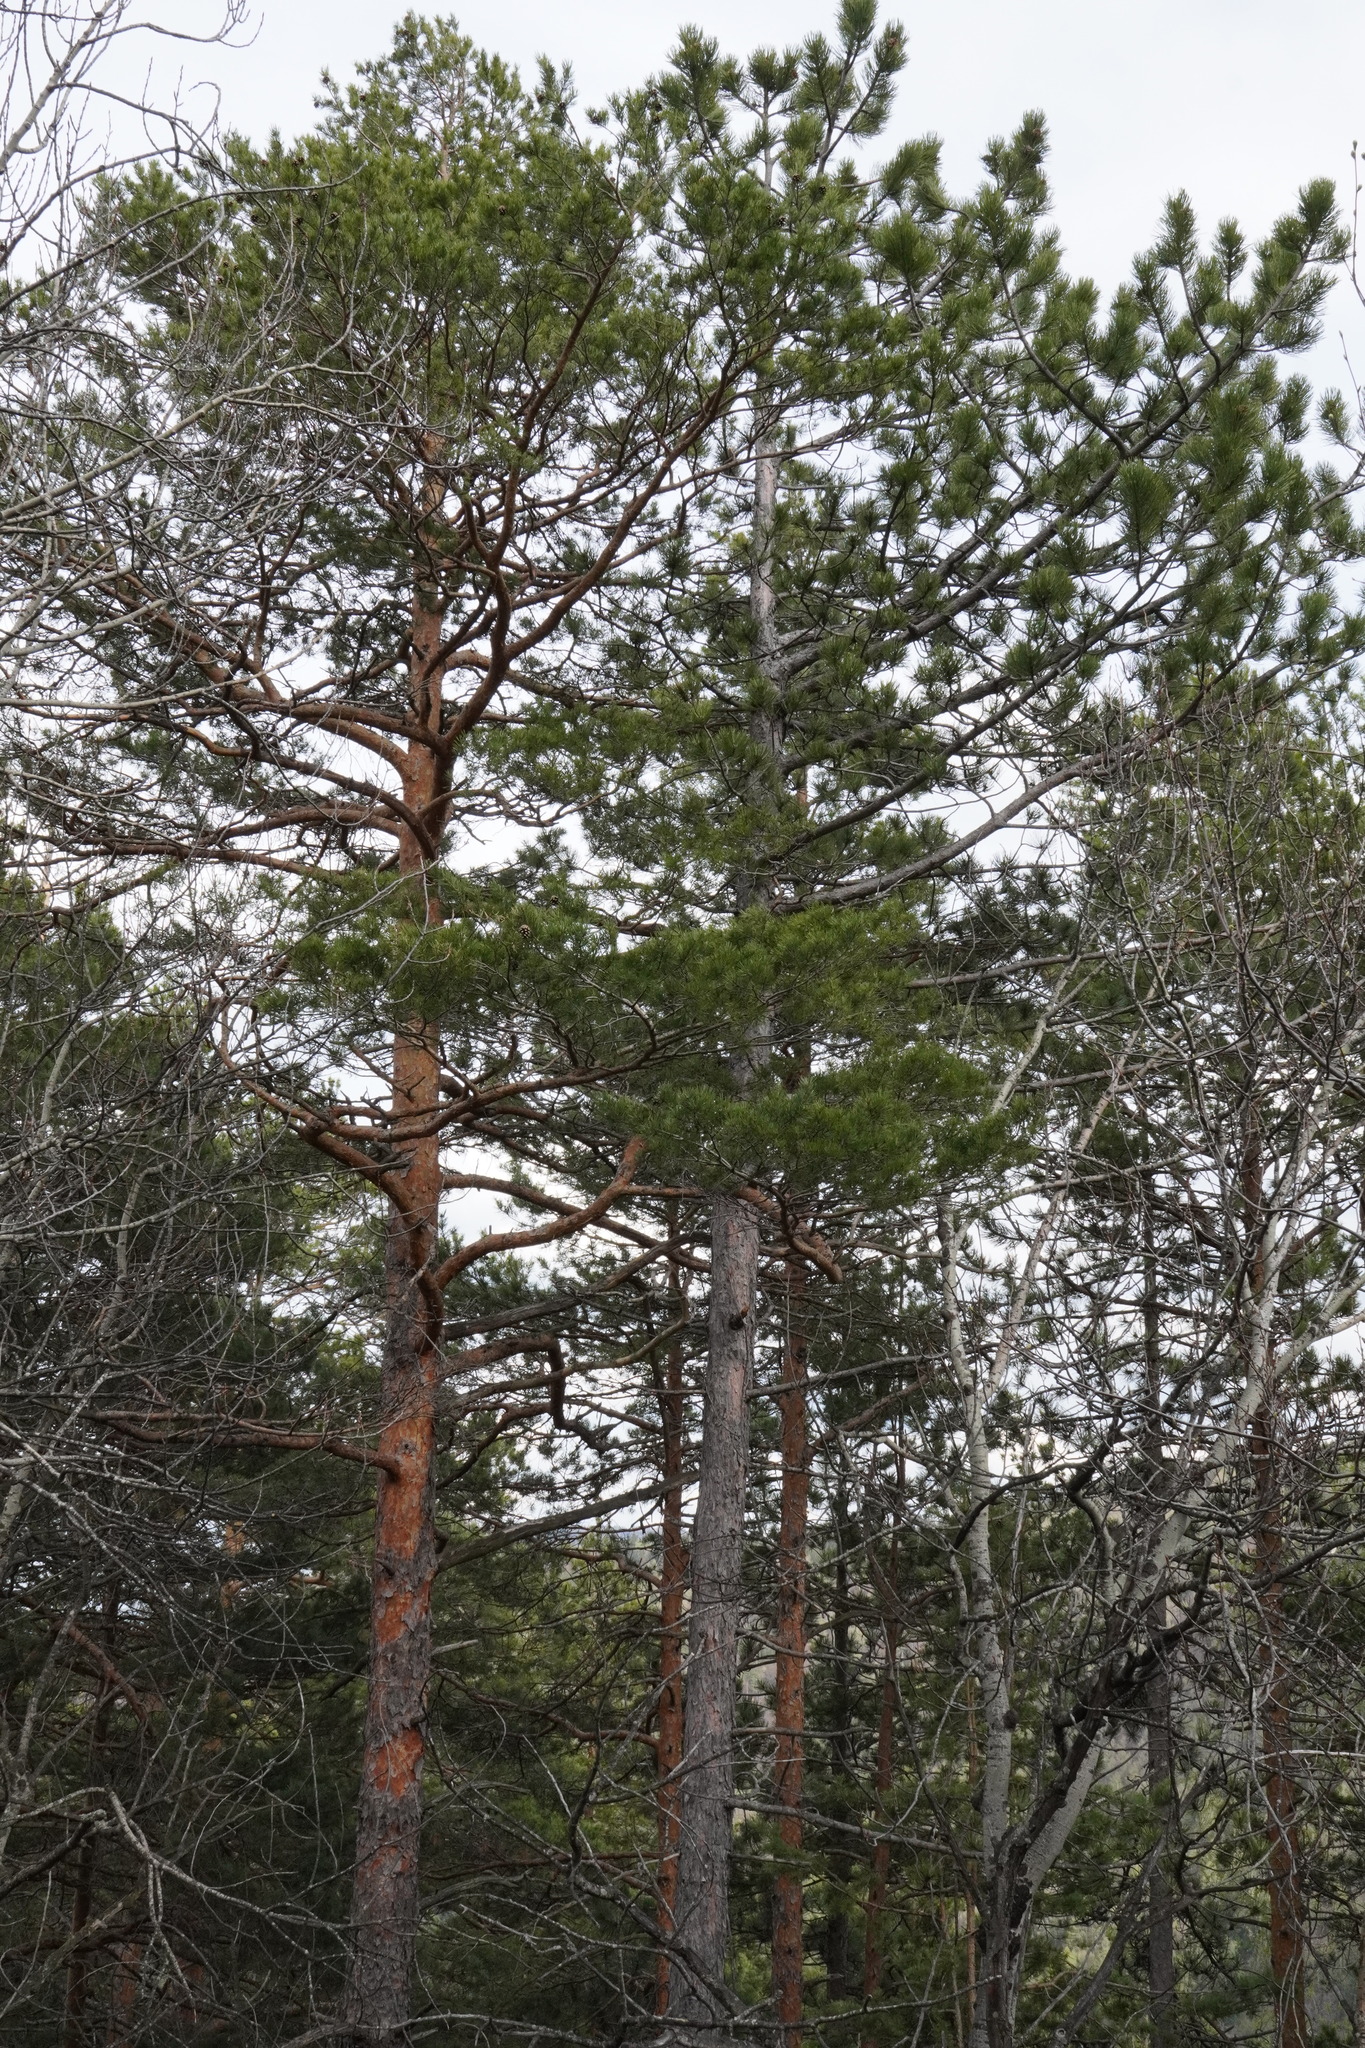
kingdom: Plantae
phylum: Tracheophyta
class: Pinopsida
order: Pinales
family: Pinaceae
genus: Pinus
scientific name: Pinus nigra
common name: Austrian pine
